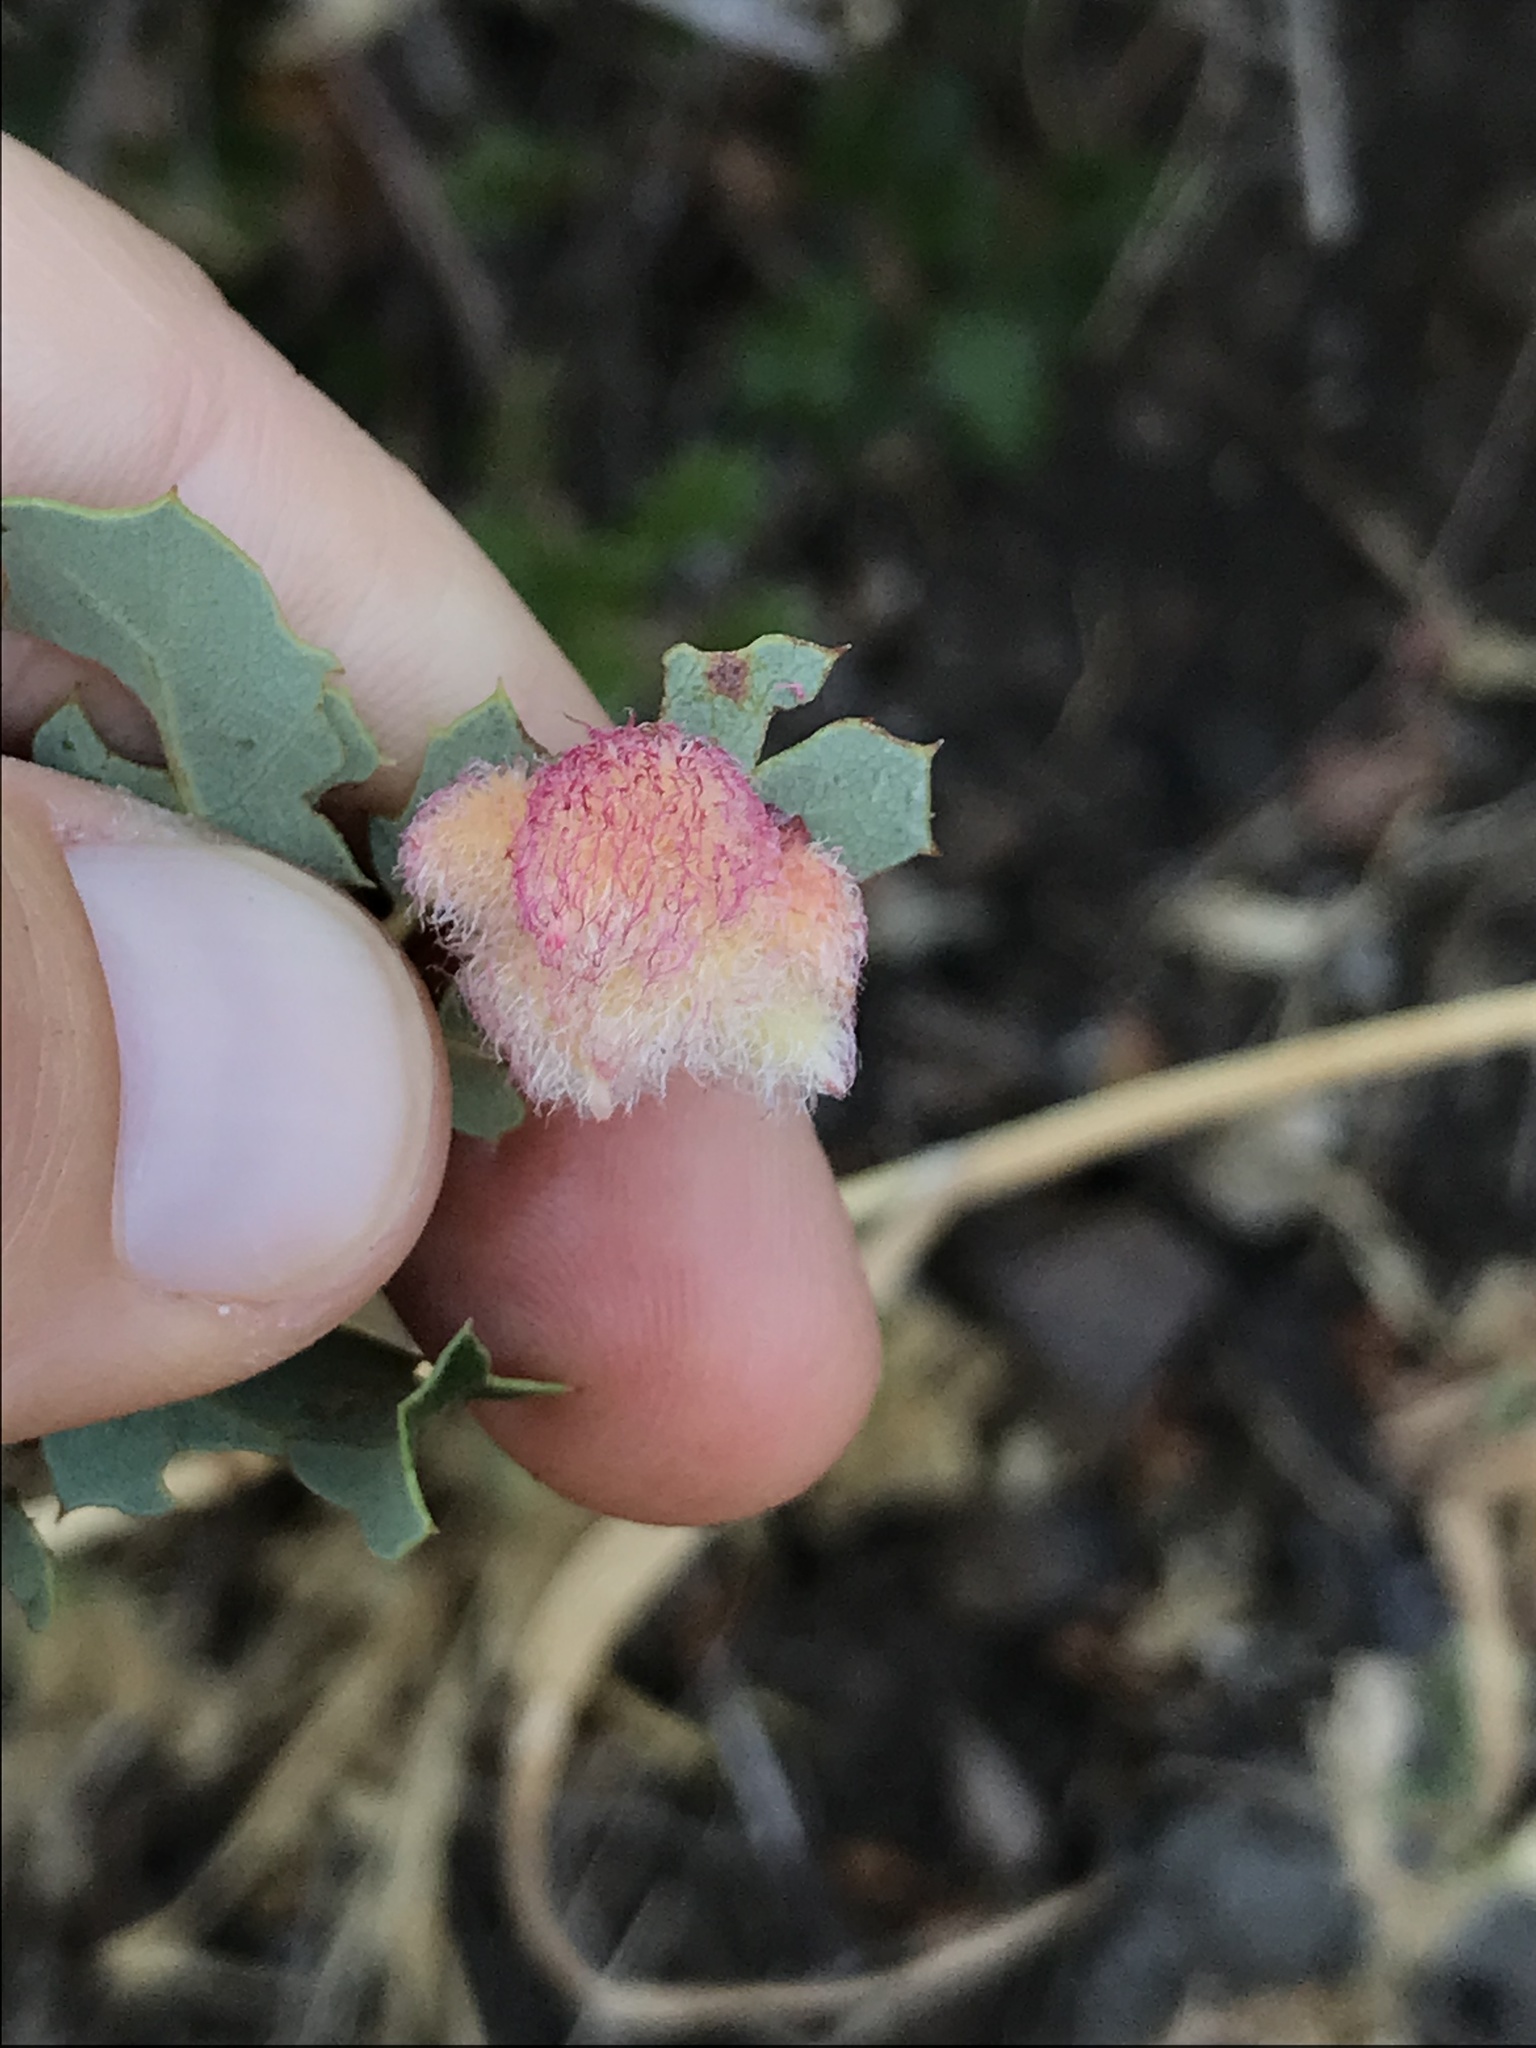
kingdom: Animalia
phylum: Arthropoda
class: Insecta
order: Hymenoptera
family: Cynipidae
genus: Andricus
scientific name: Andricus
